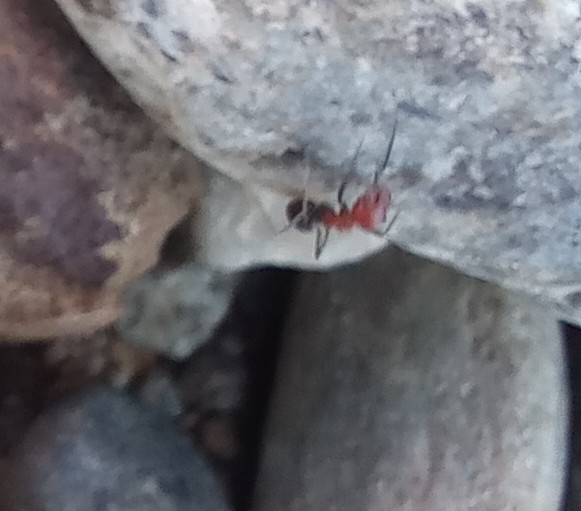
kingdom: Animalia
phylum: Arthropoda
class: Insecta
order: Hymenoptera
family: Formicidae
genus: Dorymyrmex
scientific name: Dorymyrmex tener
